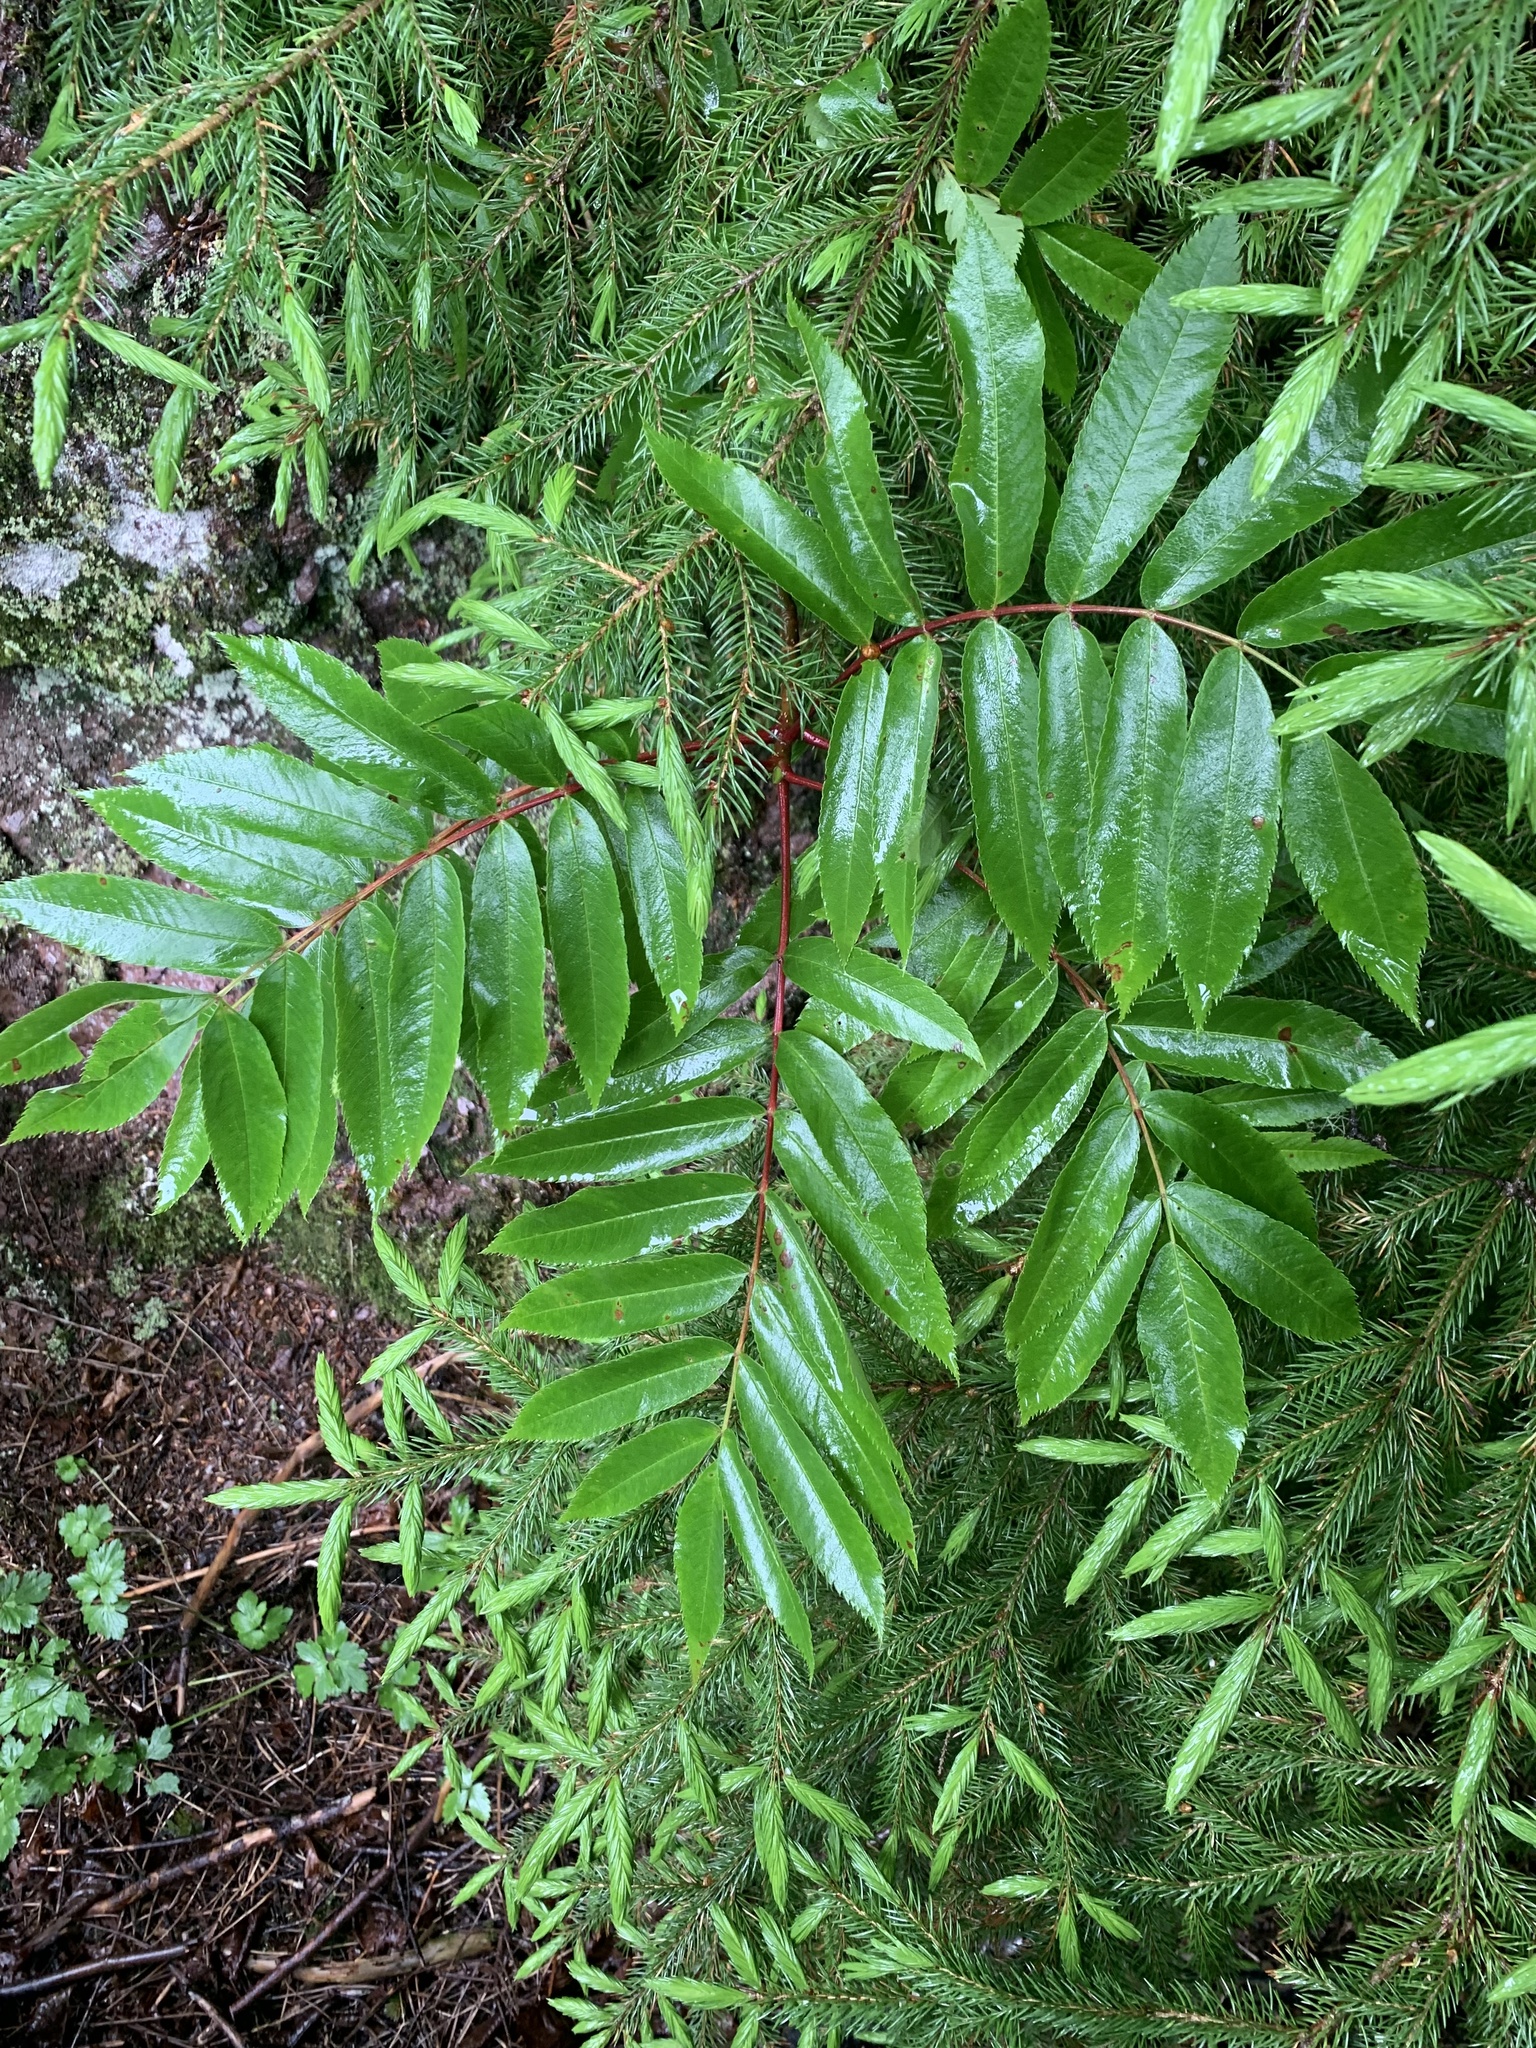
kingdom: Plantae
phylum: Tracheophyta
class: Magnoliopsida
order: Rosales
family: Rosaceae
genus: Sorbus
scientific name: Sorbus americana
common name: American mountain-ash
